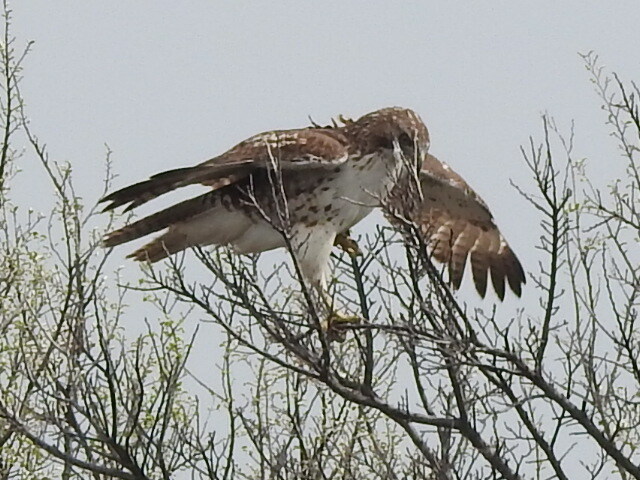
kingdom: Animalia
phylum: Chordata
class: Aves
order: Accipitriformes
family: Accipitridae
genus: Buteo
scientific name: Buteo jamaicensis
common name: Red-tailed hawk
